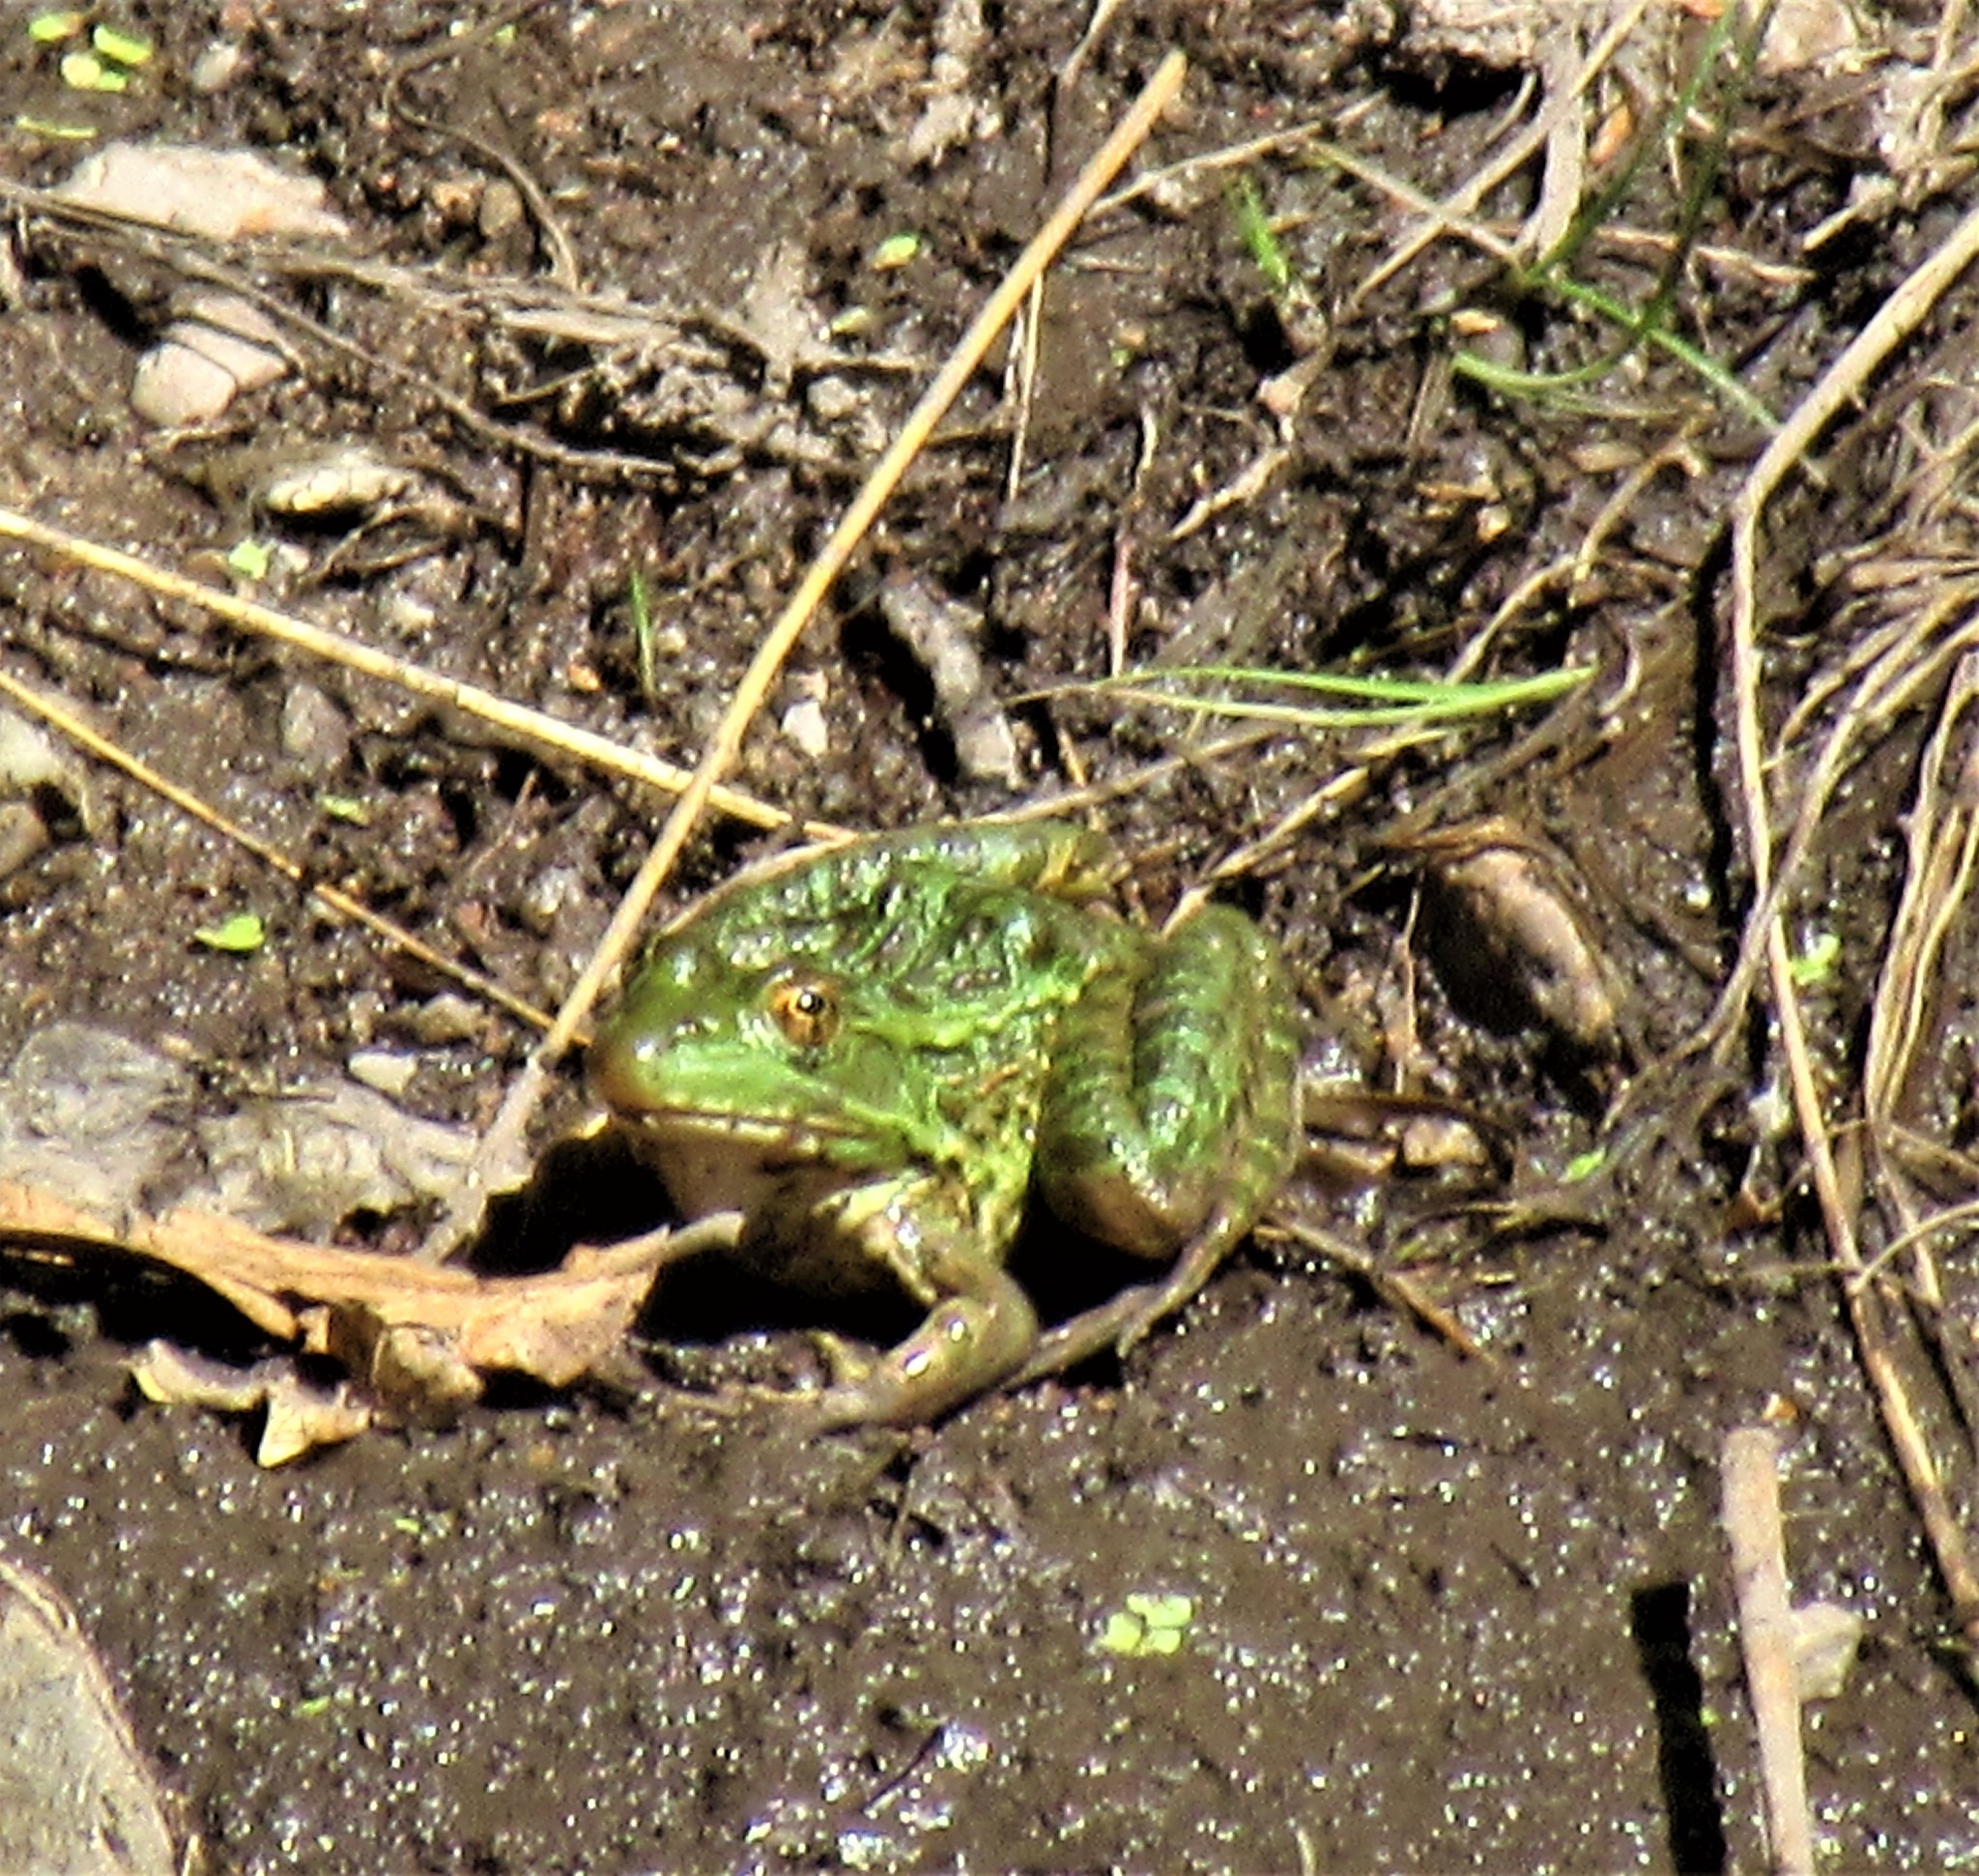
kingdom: Animalia
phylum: Chordata
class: Amphibia
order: Anura
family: Ranidae
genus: Lithobates
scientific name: Lithobates chiricahuensis
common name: Chiricahua leopard frog
